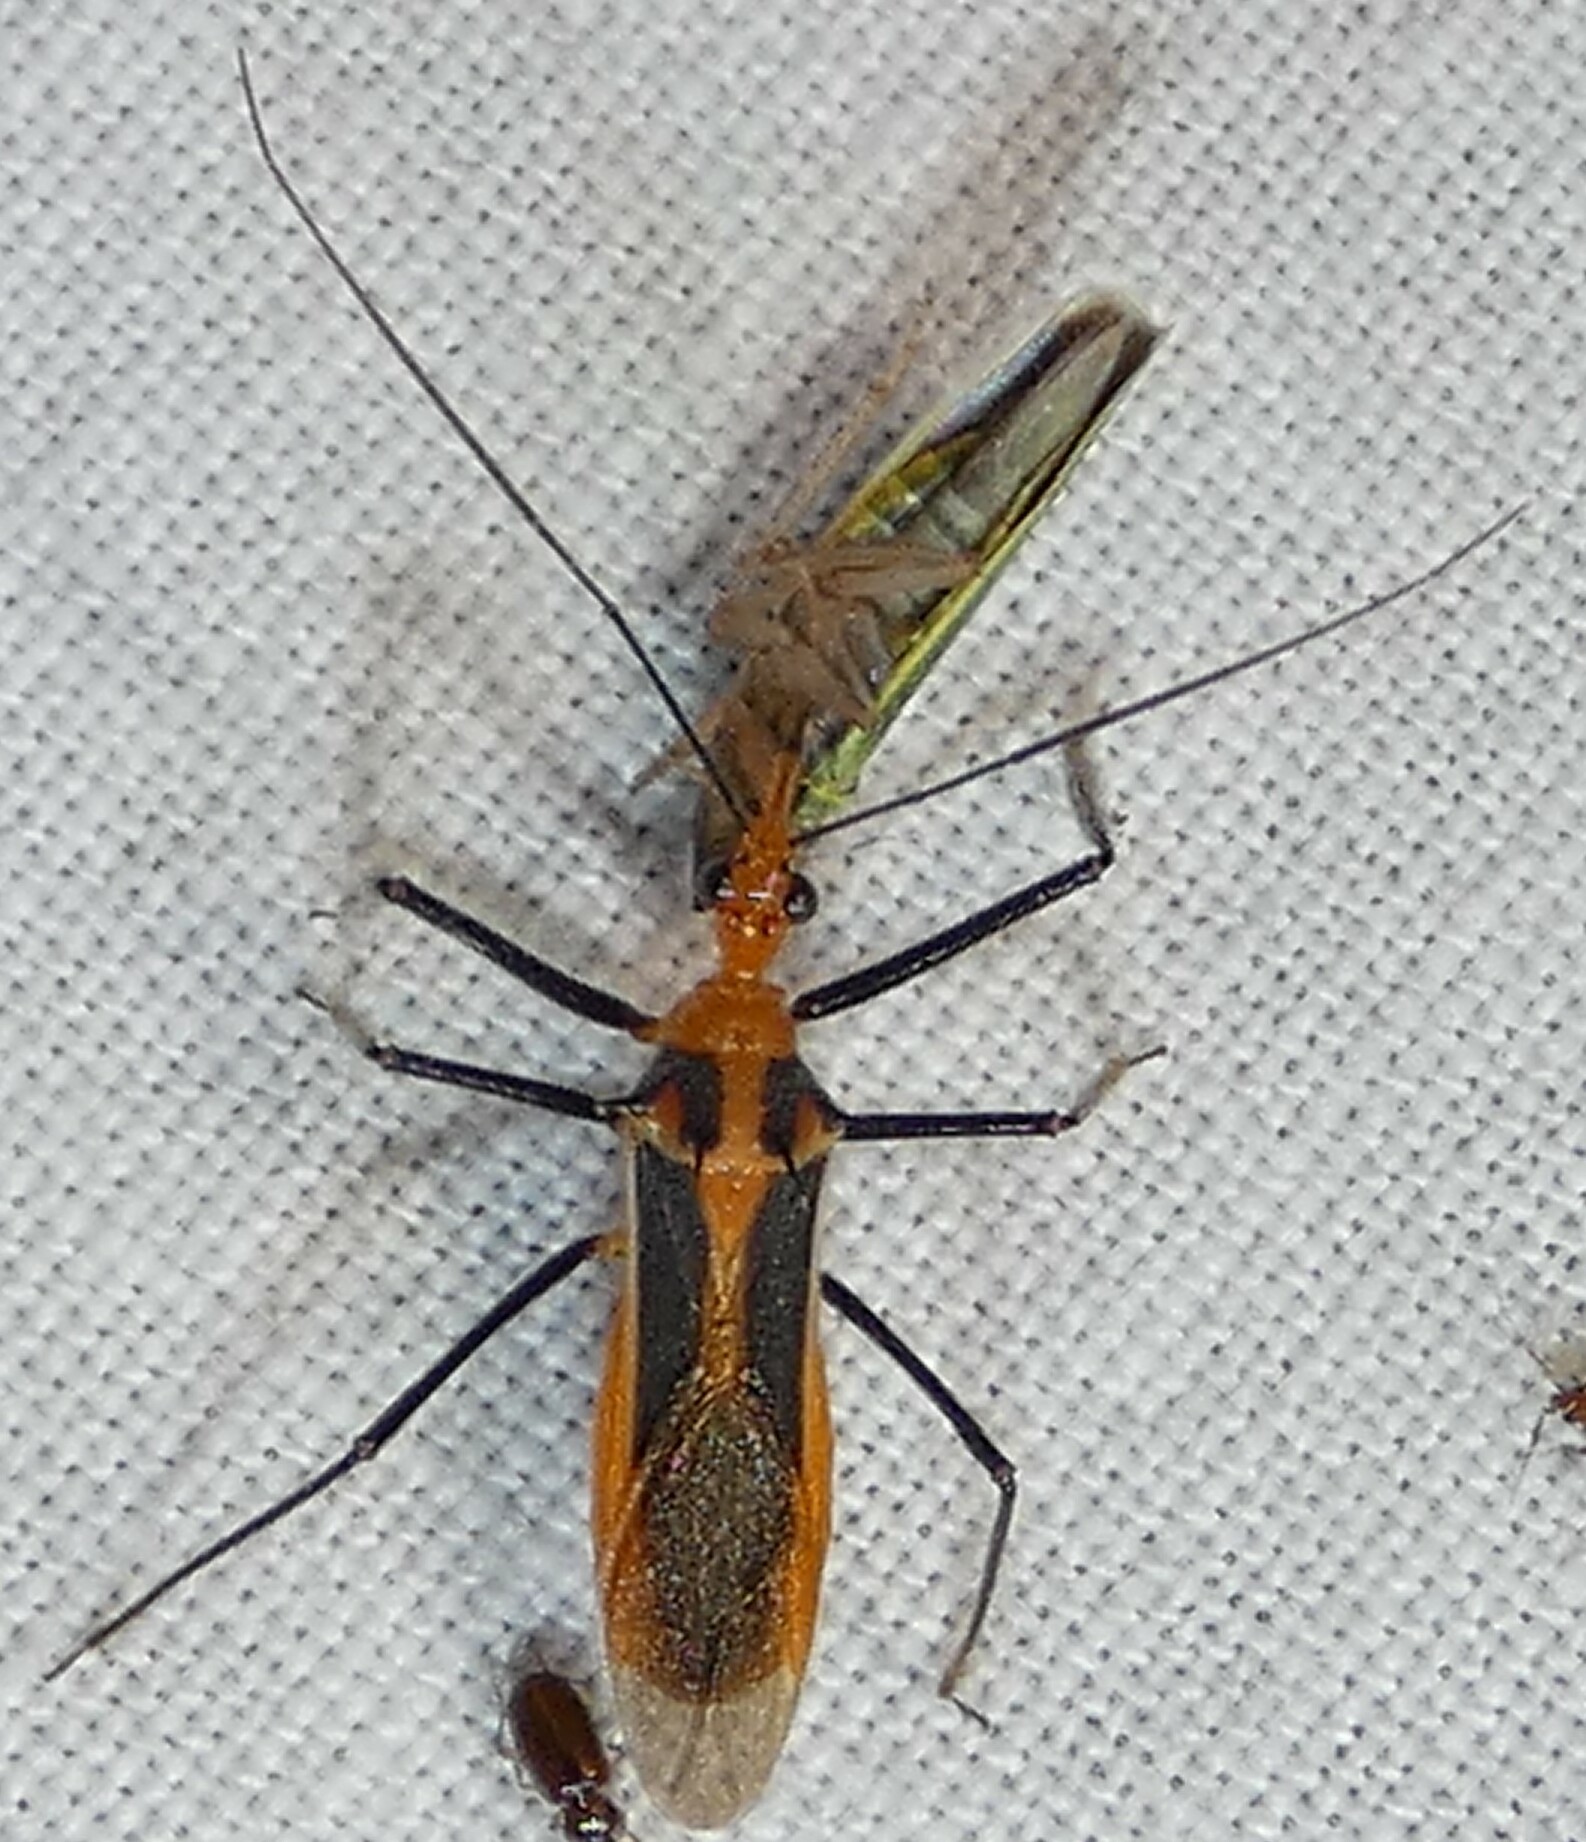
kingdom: Animalia
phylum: Arthropoda
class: Insecta
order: Hemiptera
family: Reduviidae
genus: Repipta
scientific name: Repipta taurus
